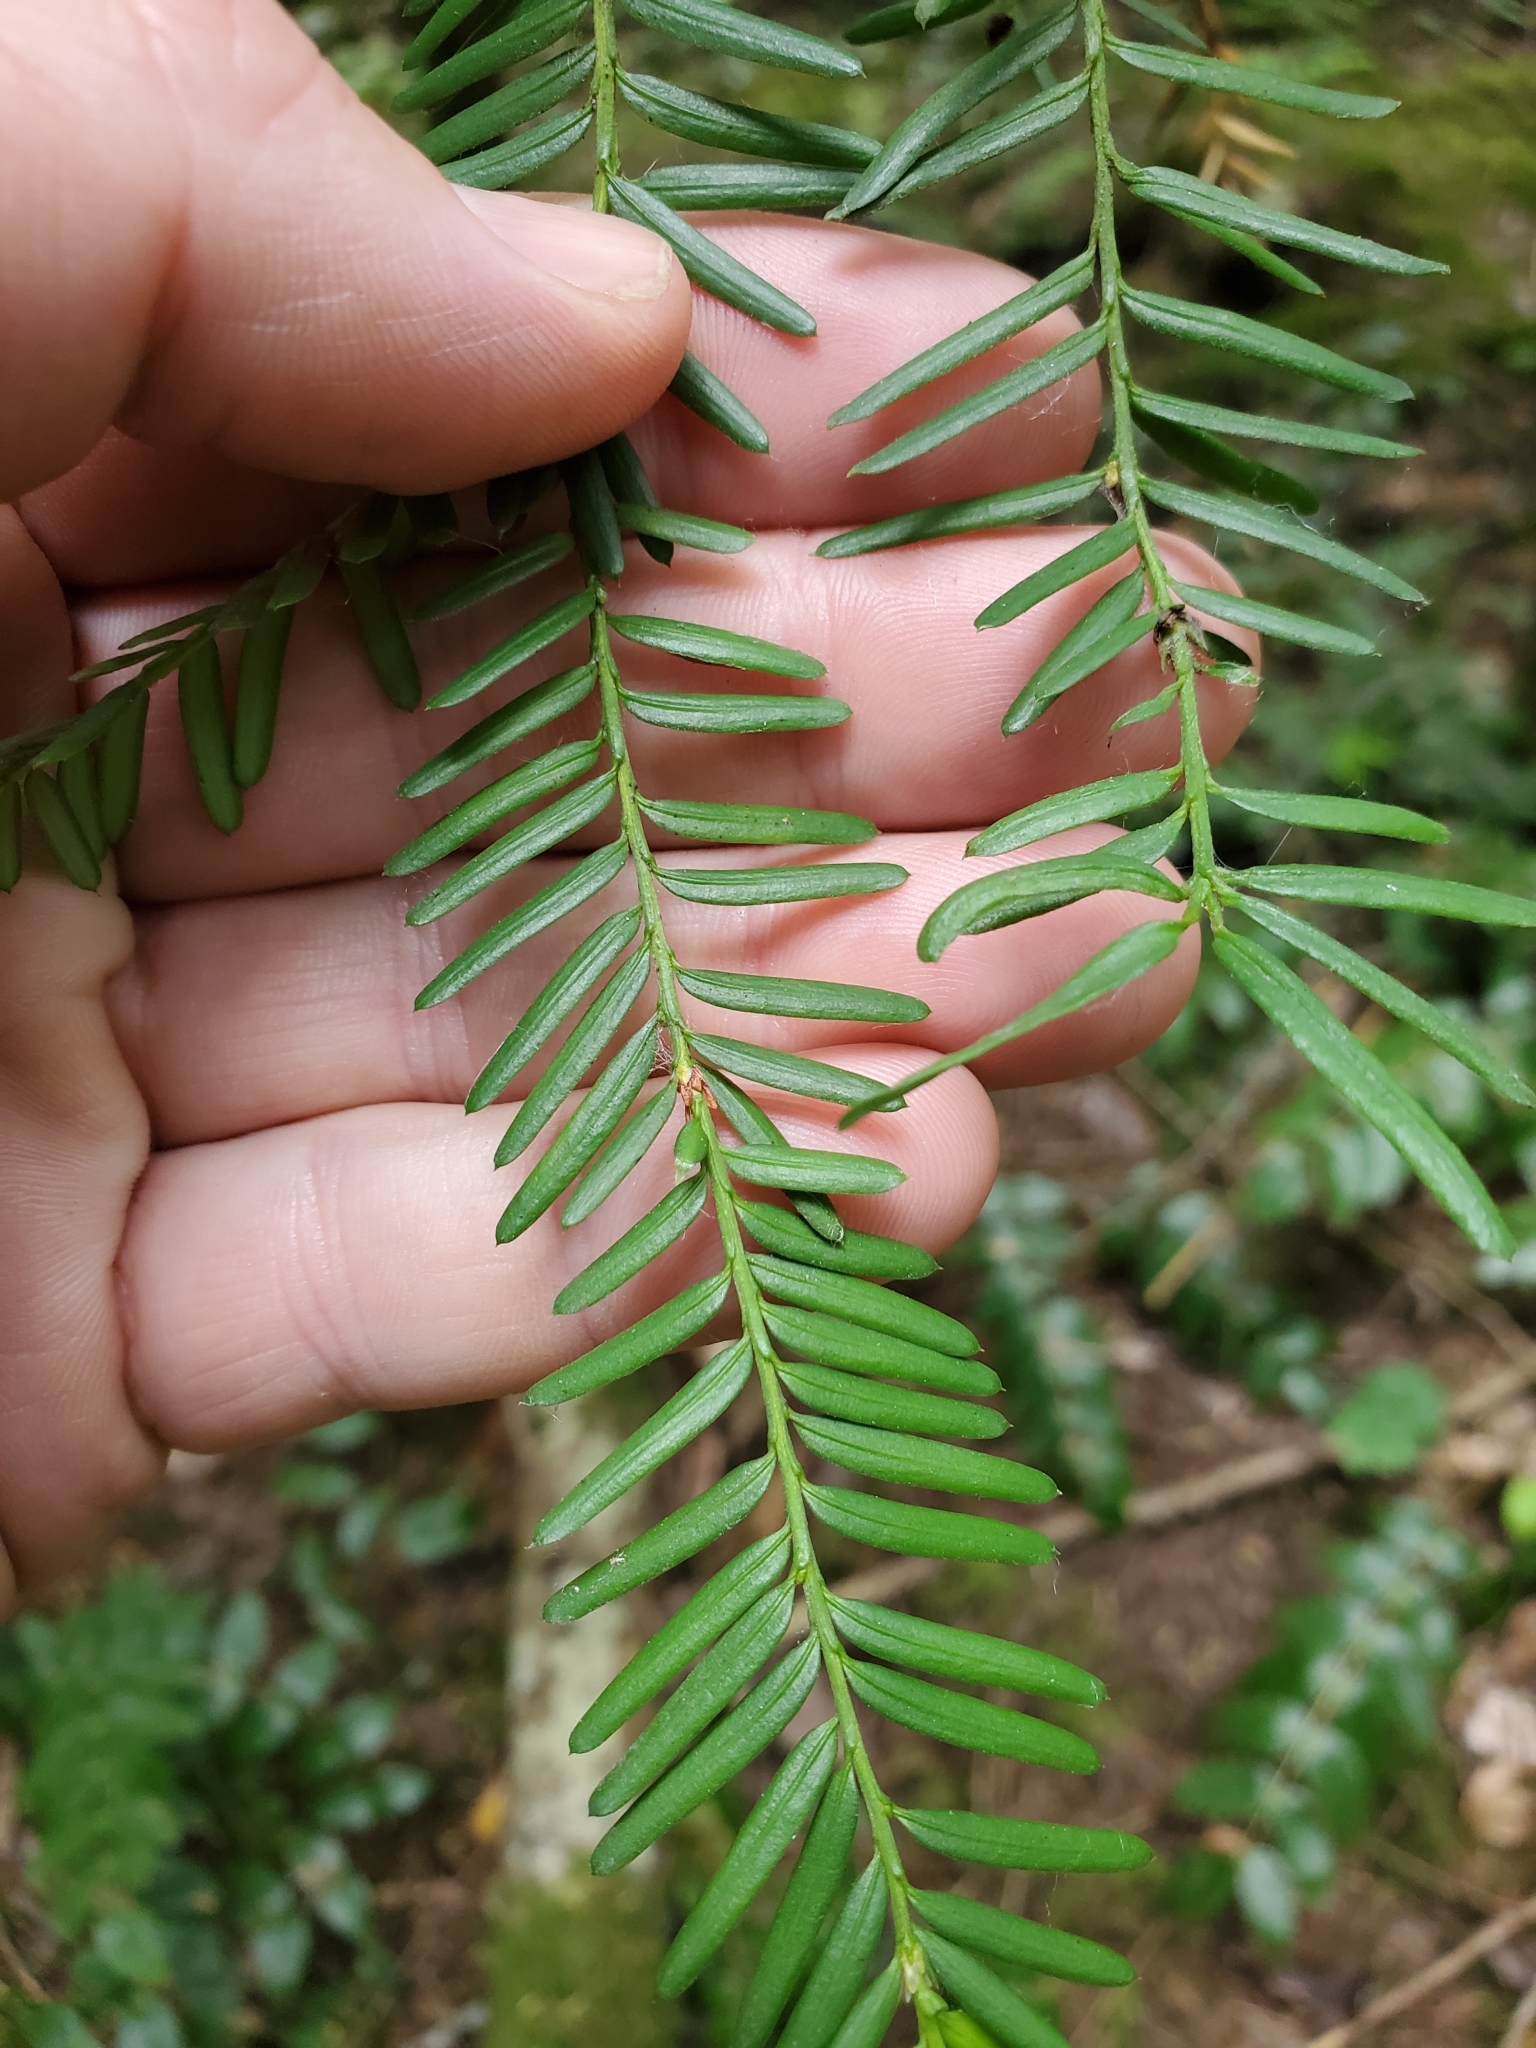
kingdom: Plantae
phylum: Tracheophyta
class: Pinopsida
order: Pinales
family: Taxaceae
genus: Taxus
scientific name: Taxus brevifolia
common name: Pacific yew
